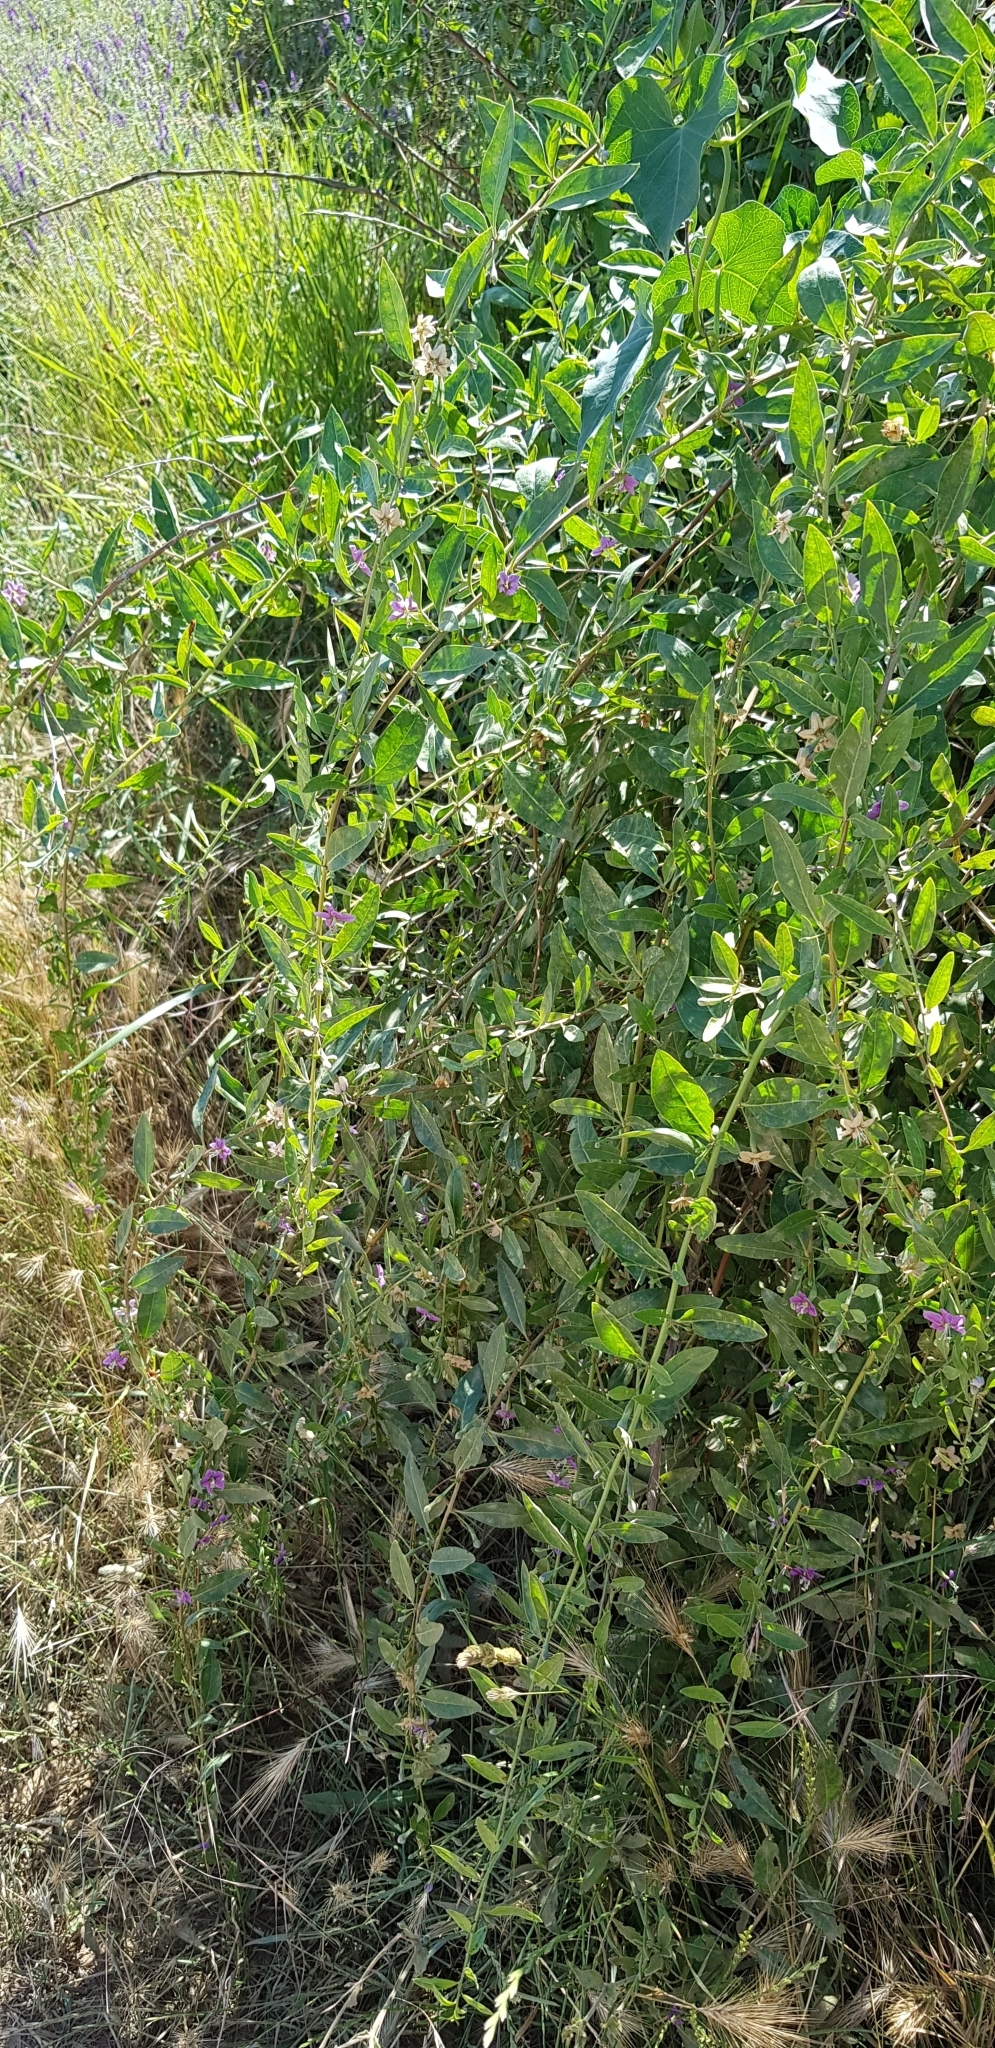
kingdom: Plantae
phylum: Tracheophyta
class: Magnoliopsida
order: Solanales
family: Solanaceae
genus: Lycium
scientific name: Lycium barbarum
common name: Duke of argyll's teaplant
